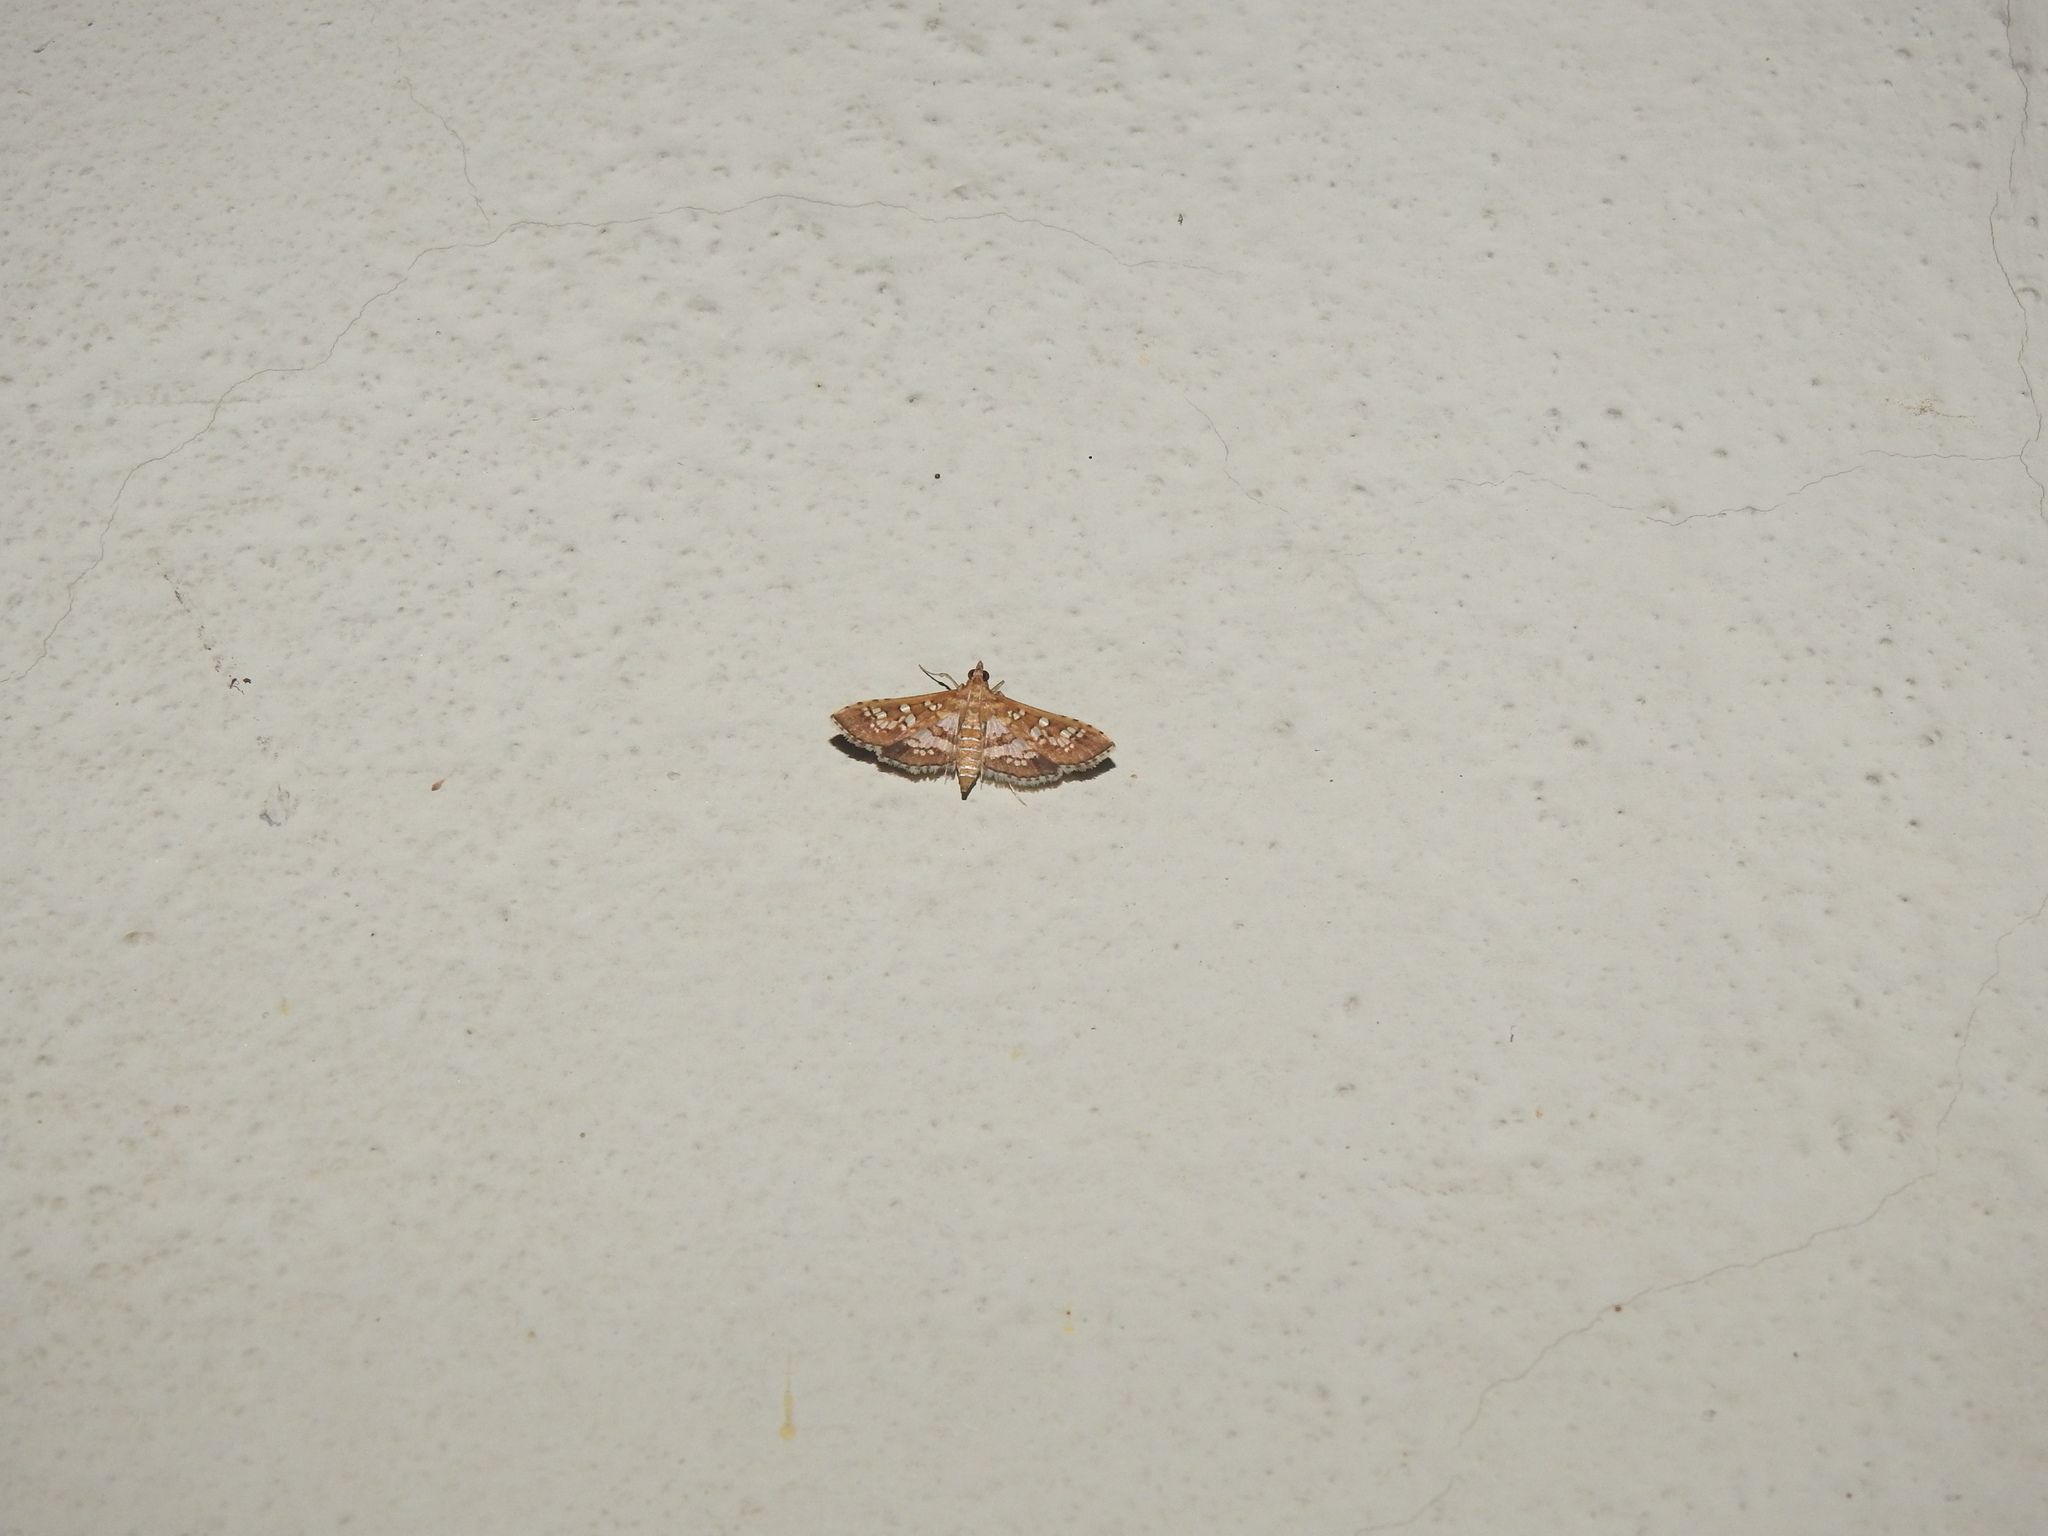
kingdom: Animalia
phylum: Arthropoda
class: Insecta
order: Lepidoptera
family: Crambidae
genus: Sameodes
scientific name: Sameodes cancellalis
